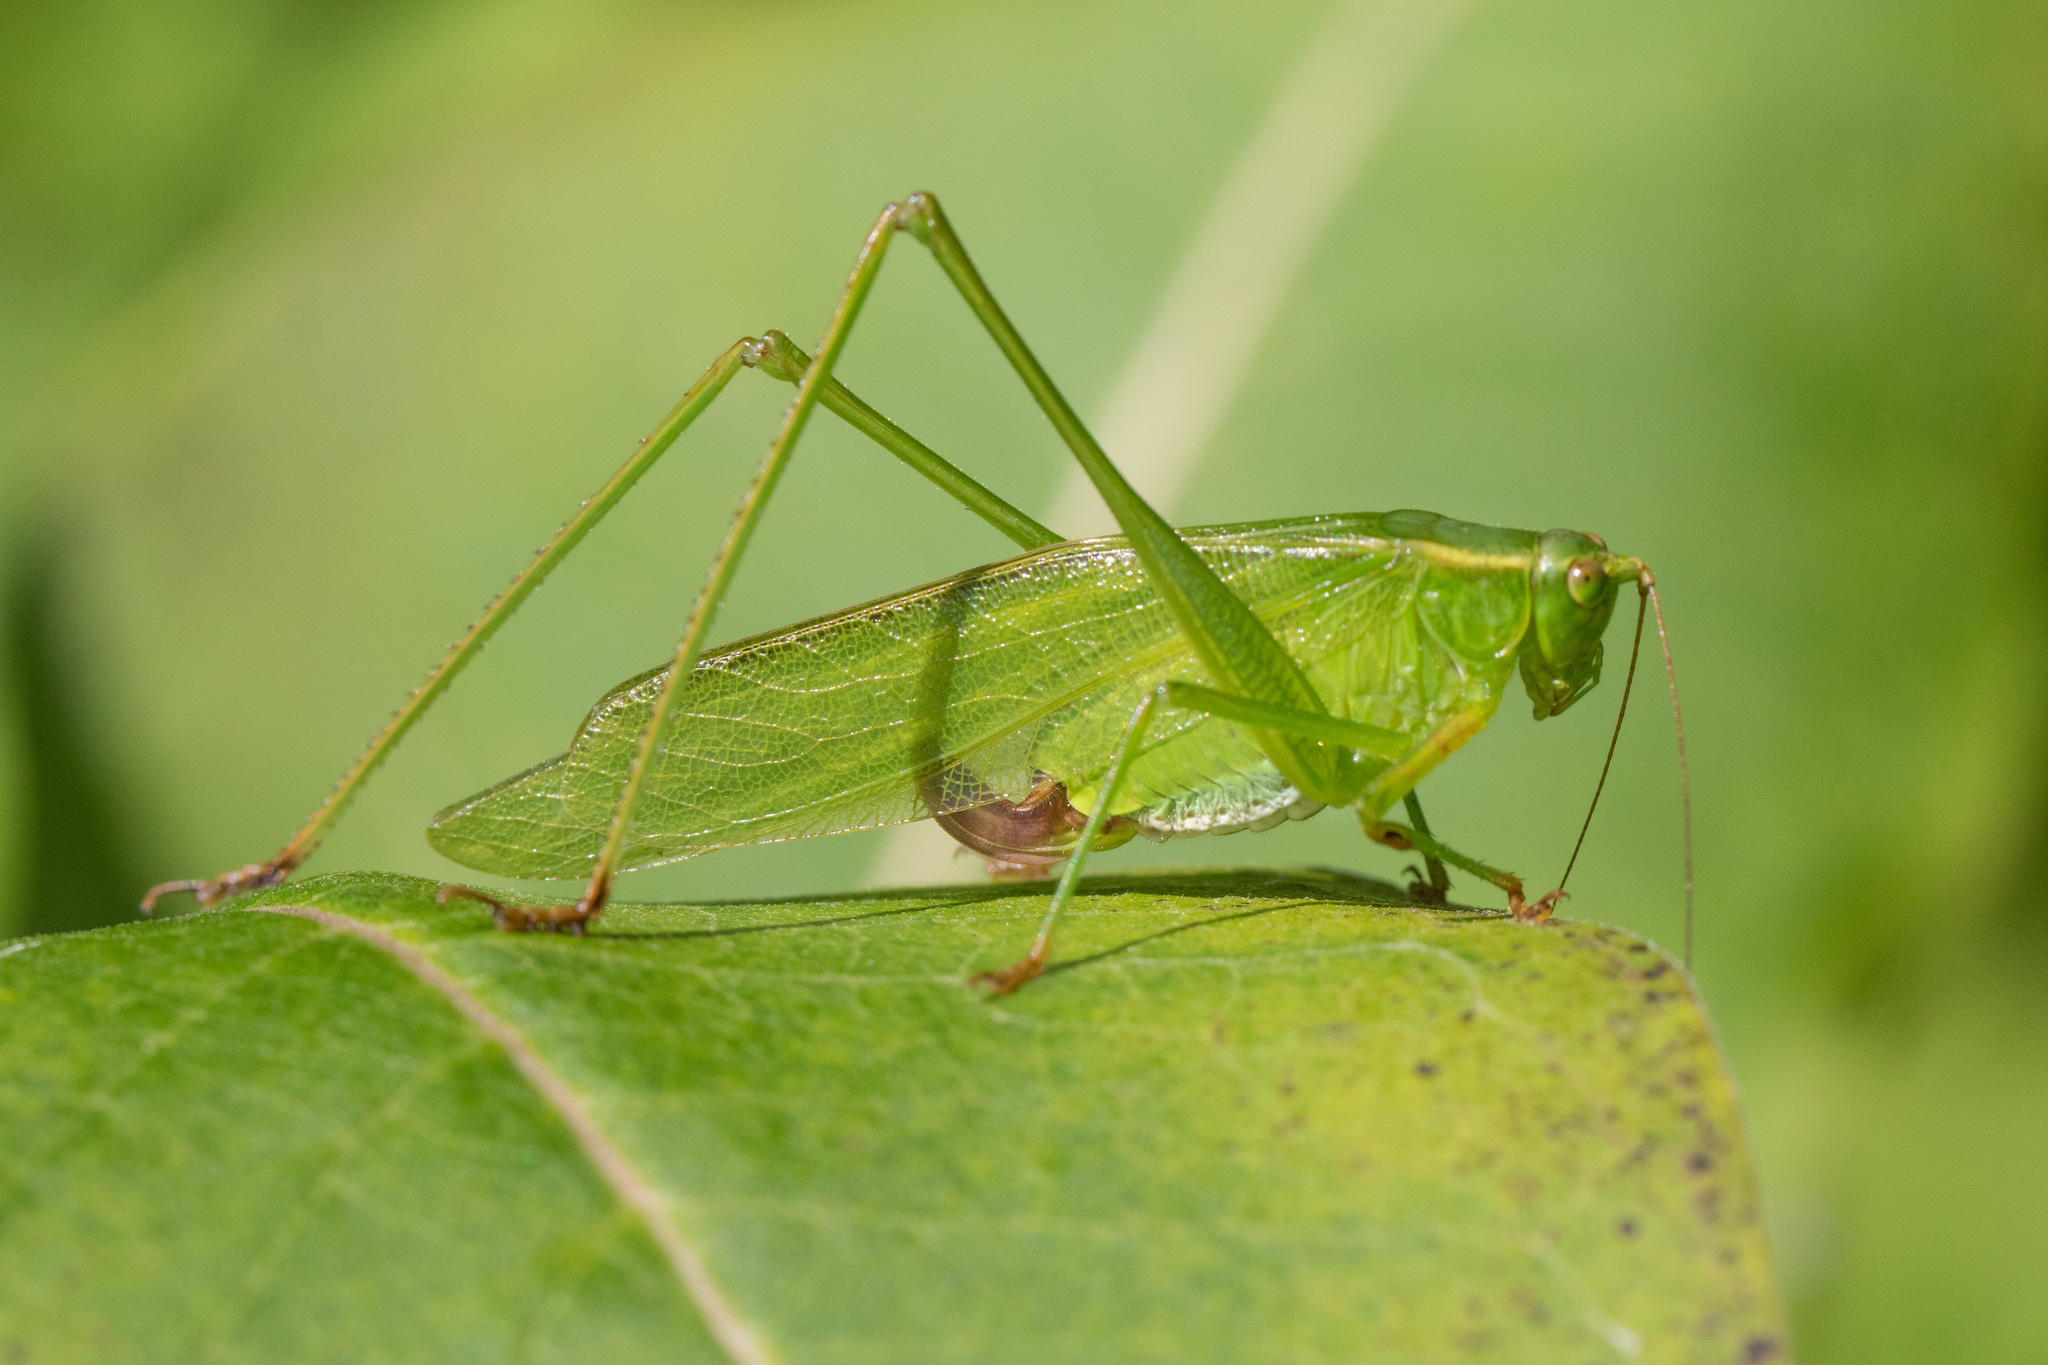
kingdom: Animalia
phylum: Arthropoda
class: Insecta
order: Orthoptera
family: Tettigoniidae
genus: Scudderia
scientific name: Scudderia
